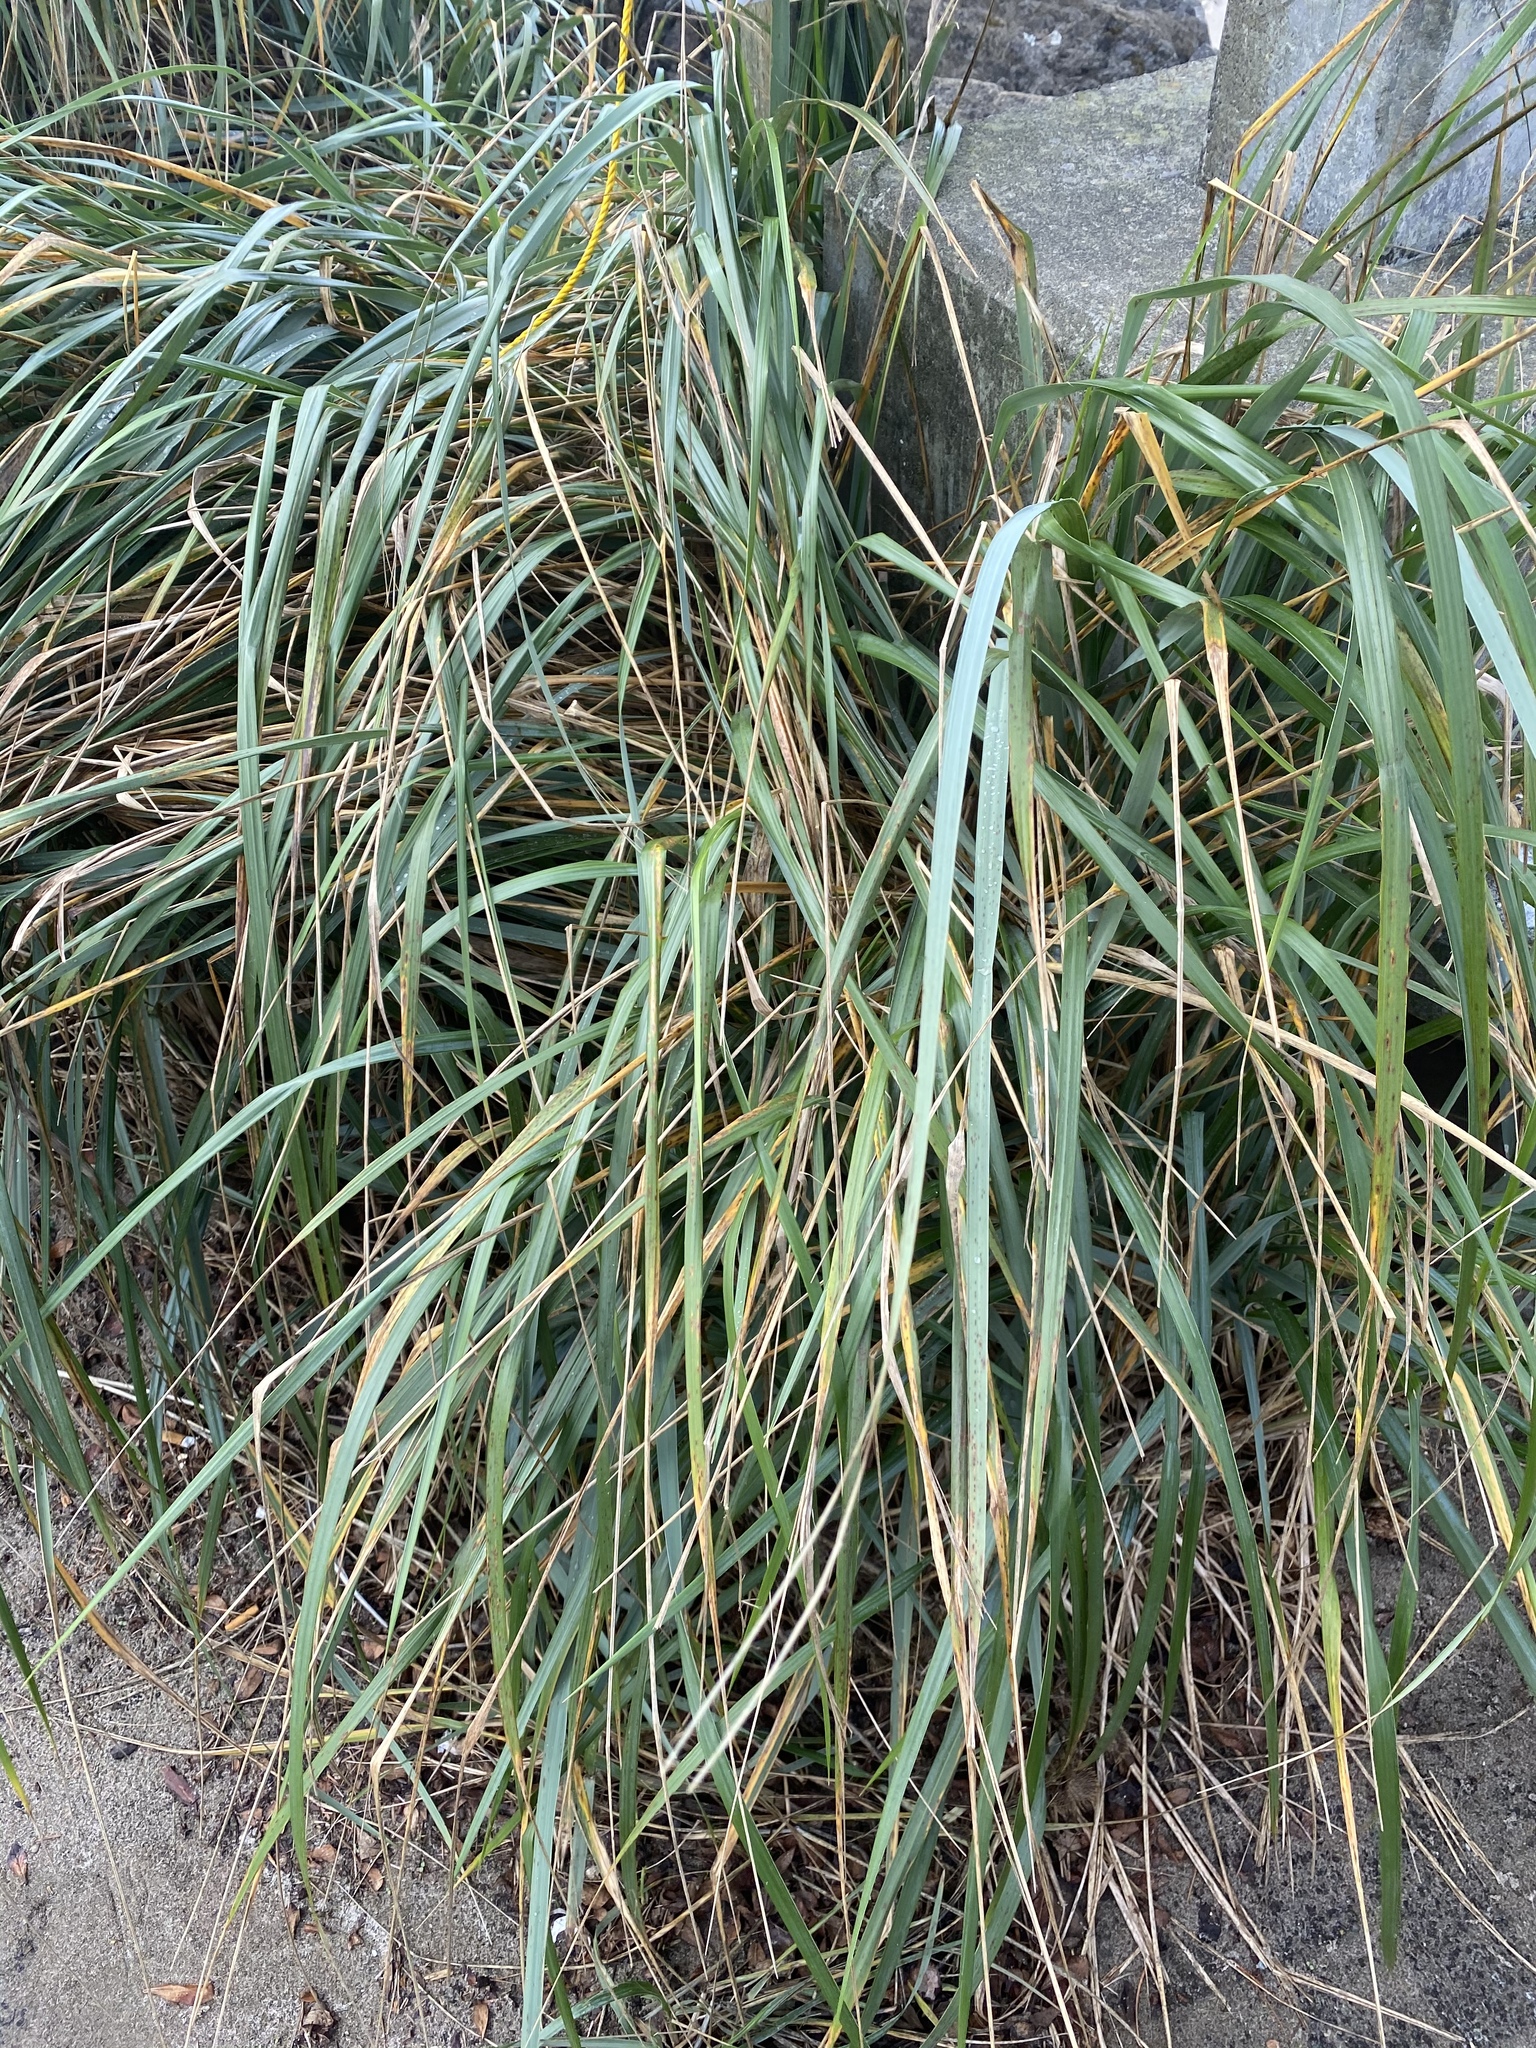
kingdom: Plantae
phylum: Tracheophyta
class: Liliopsida
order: Poales
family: Poaceae
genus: Leymus
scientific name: Leymus mollis
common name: American dune grass
